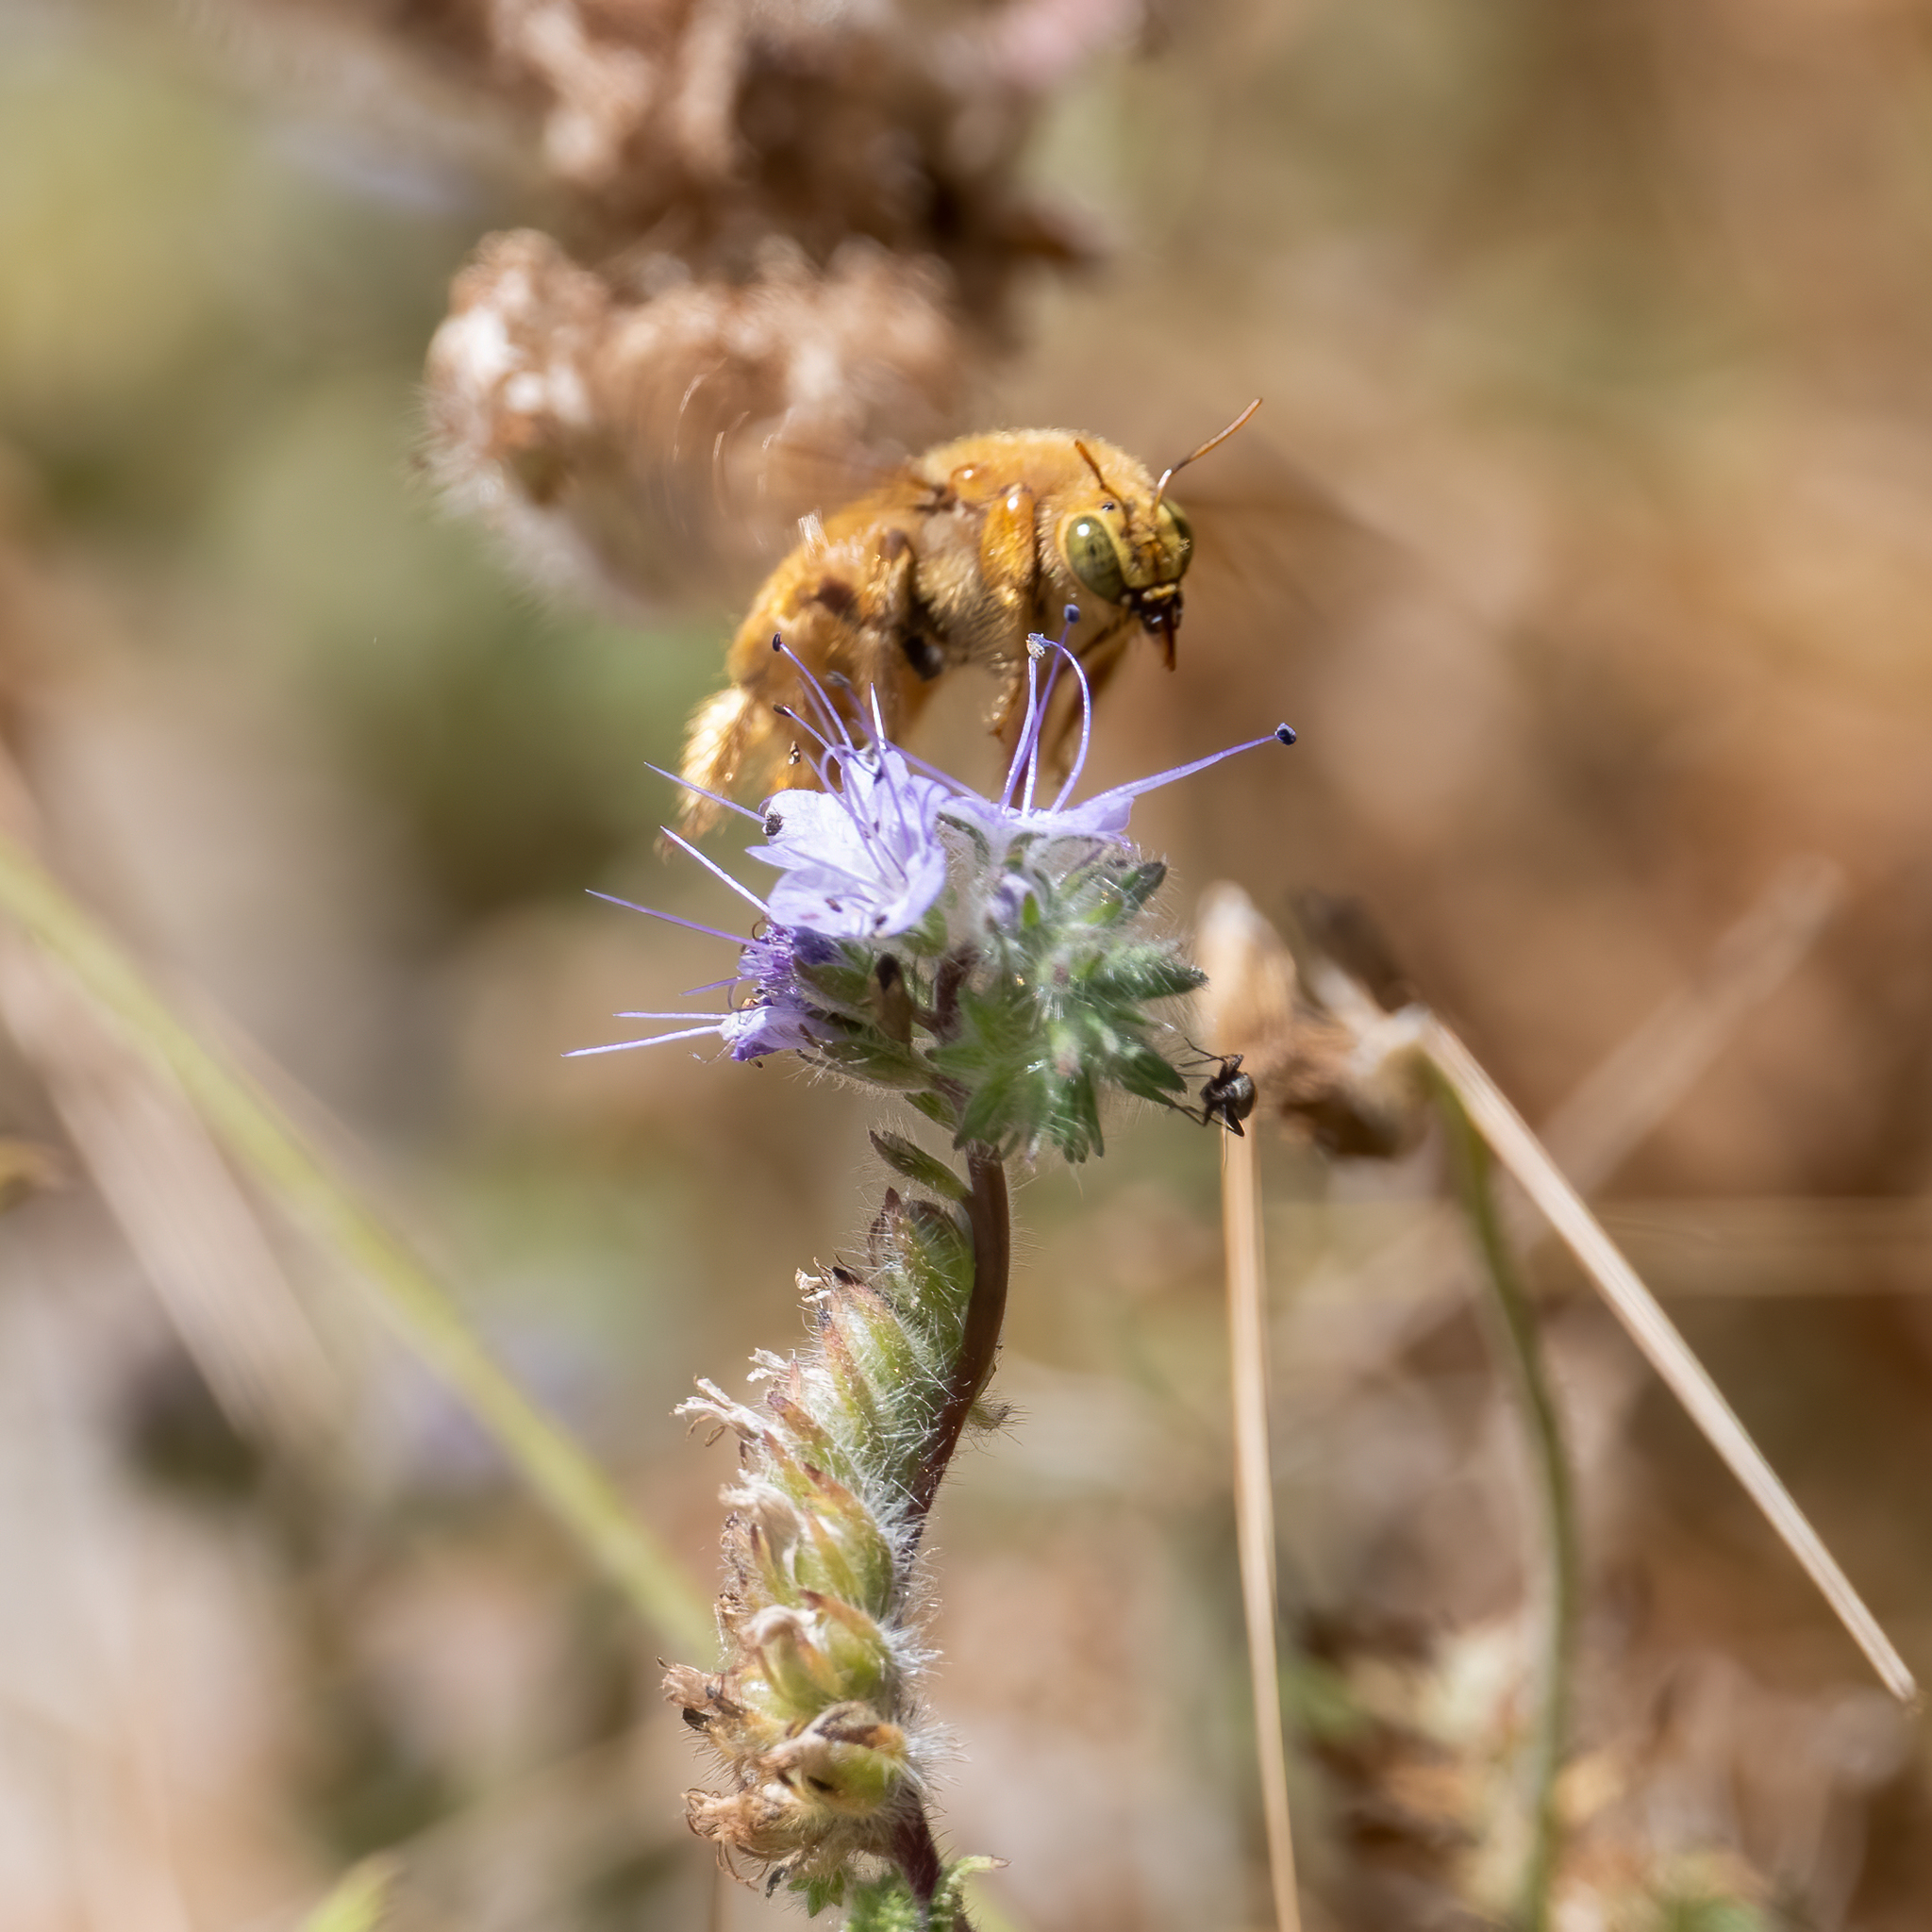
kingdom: Animalia
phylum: Arthropoda
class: Insecta
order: Hymenoptera
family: Apidae
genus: Xylocopa
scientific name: Xylocopa sonorina
